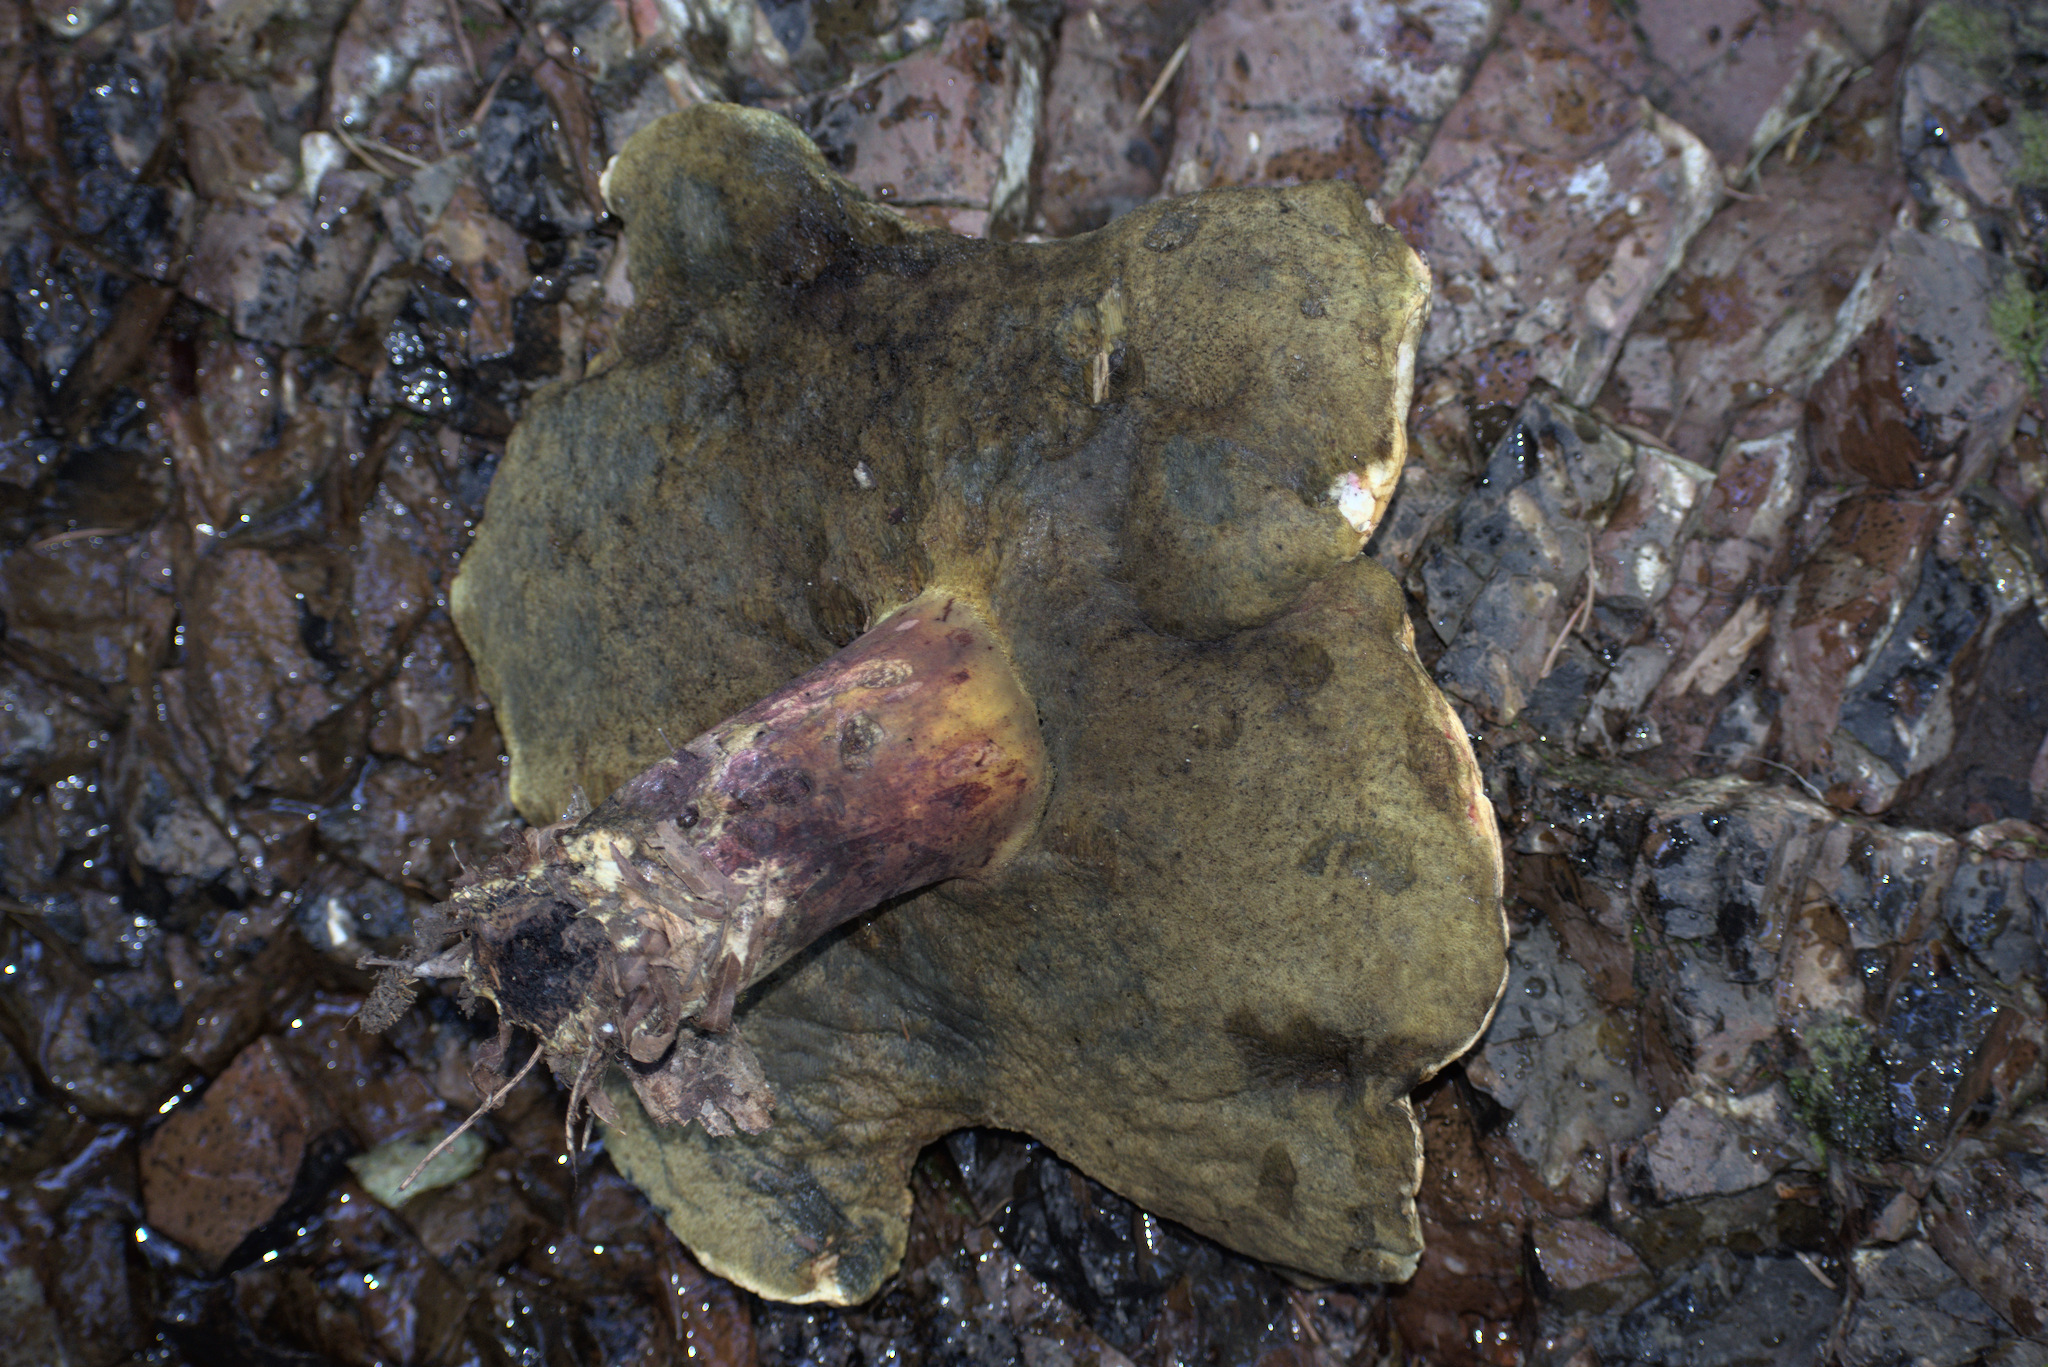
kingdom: Fungi
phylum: Basidiomycota
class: Agaricomycetes
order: Boletales
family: Boletaceae
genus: Caloboletus
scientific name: Caloboletus rubripes
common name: Red-footed bitter bolete
